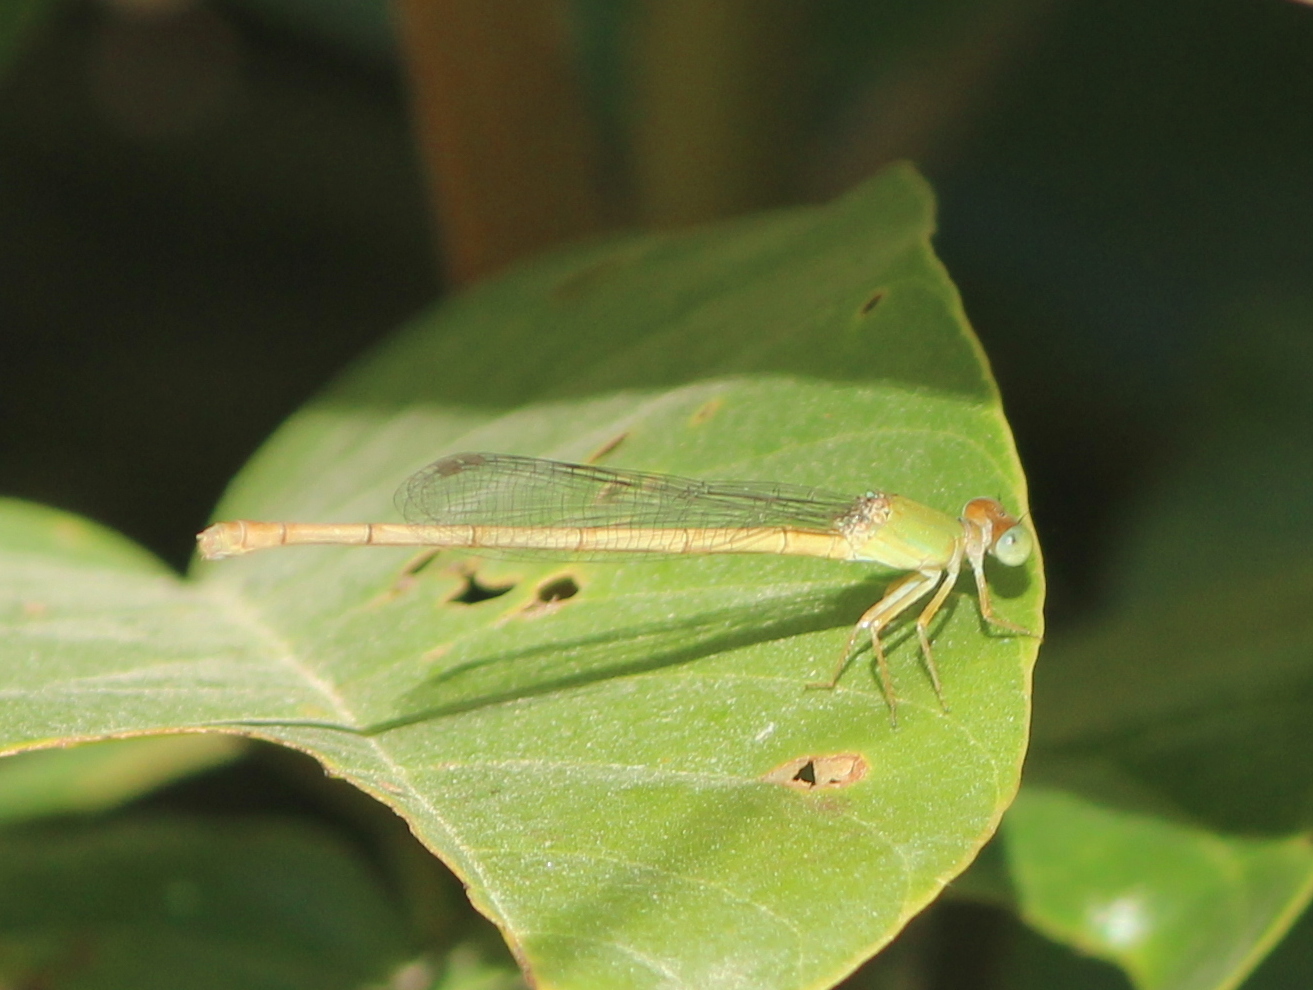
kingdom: Animalia
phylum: Arthropoda
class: Insecta
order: Odonata
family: Coenagrionidae
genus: Ceriagrion
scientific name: Ceriagrion coromandelianum
